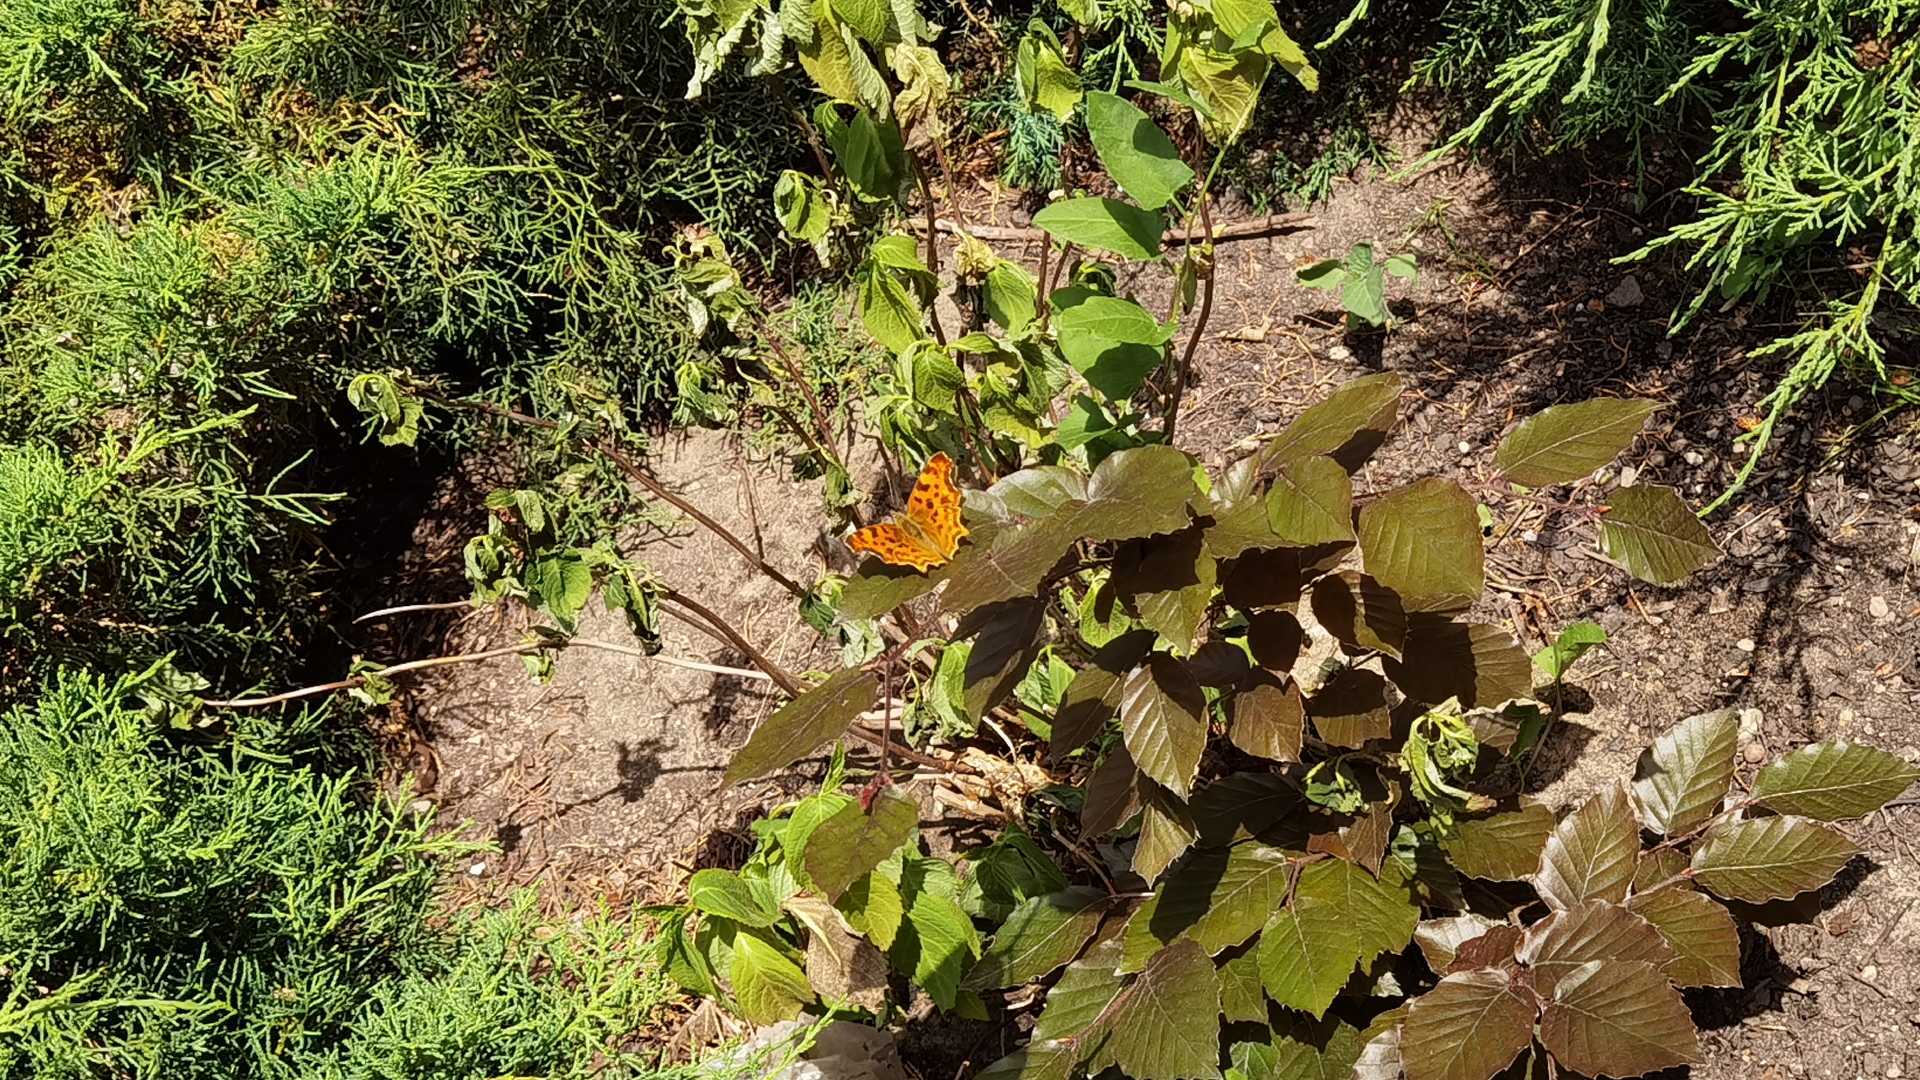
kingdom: Animalia
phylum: Arthropoda
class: Insecta
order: Lepidoptera
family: Nymphalidae
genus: Polygonia
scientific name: Polygonia c-album
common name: Comma
